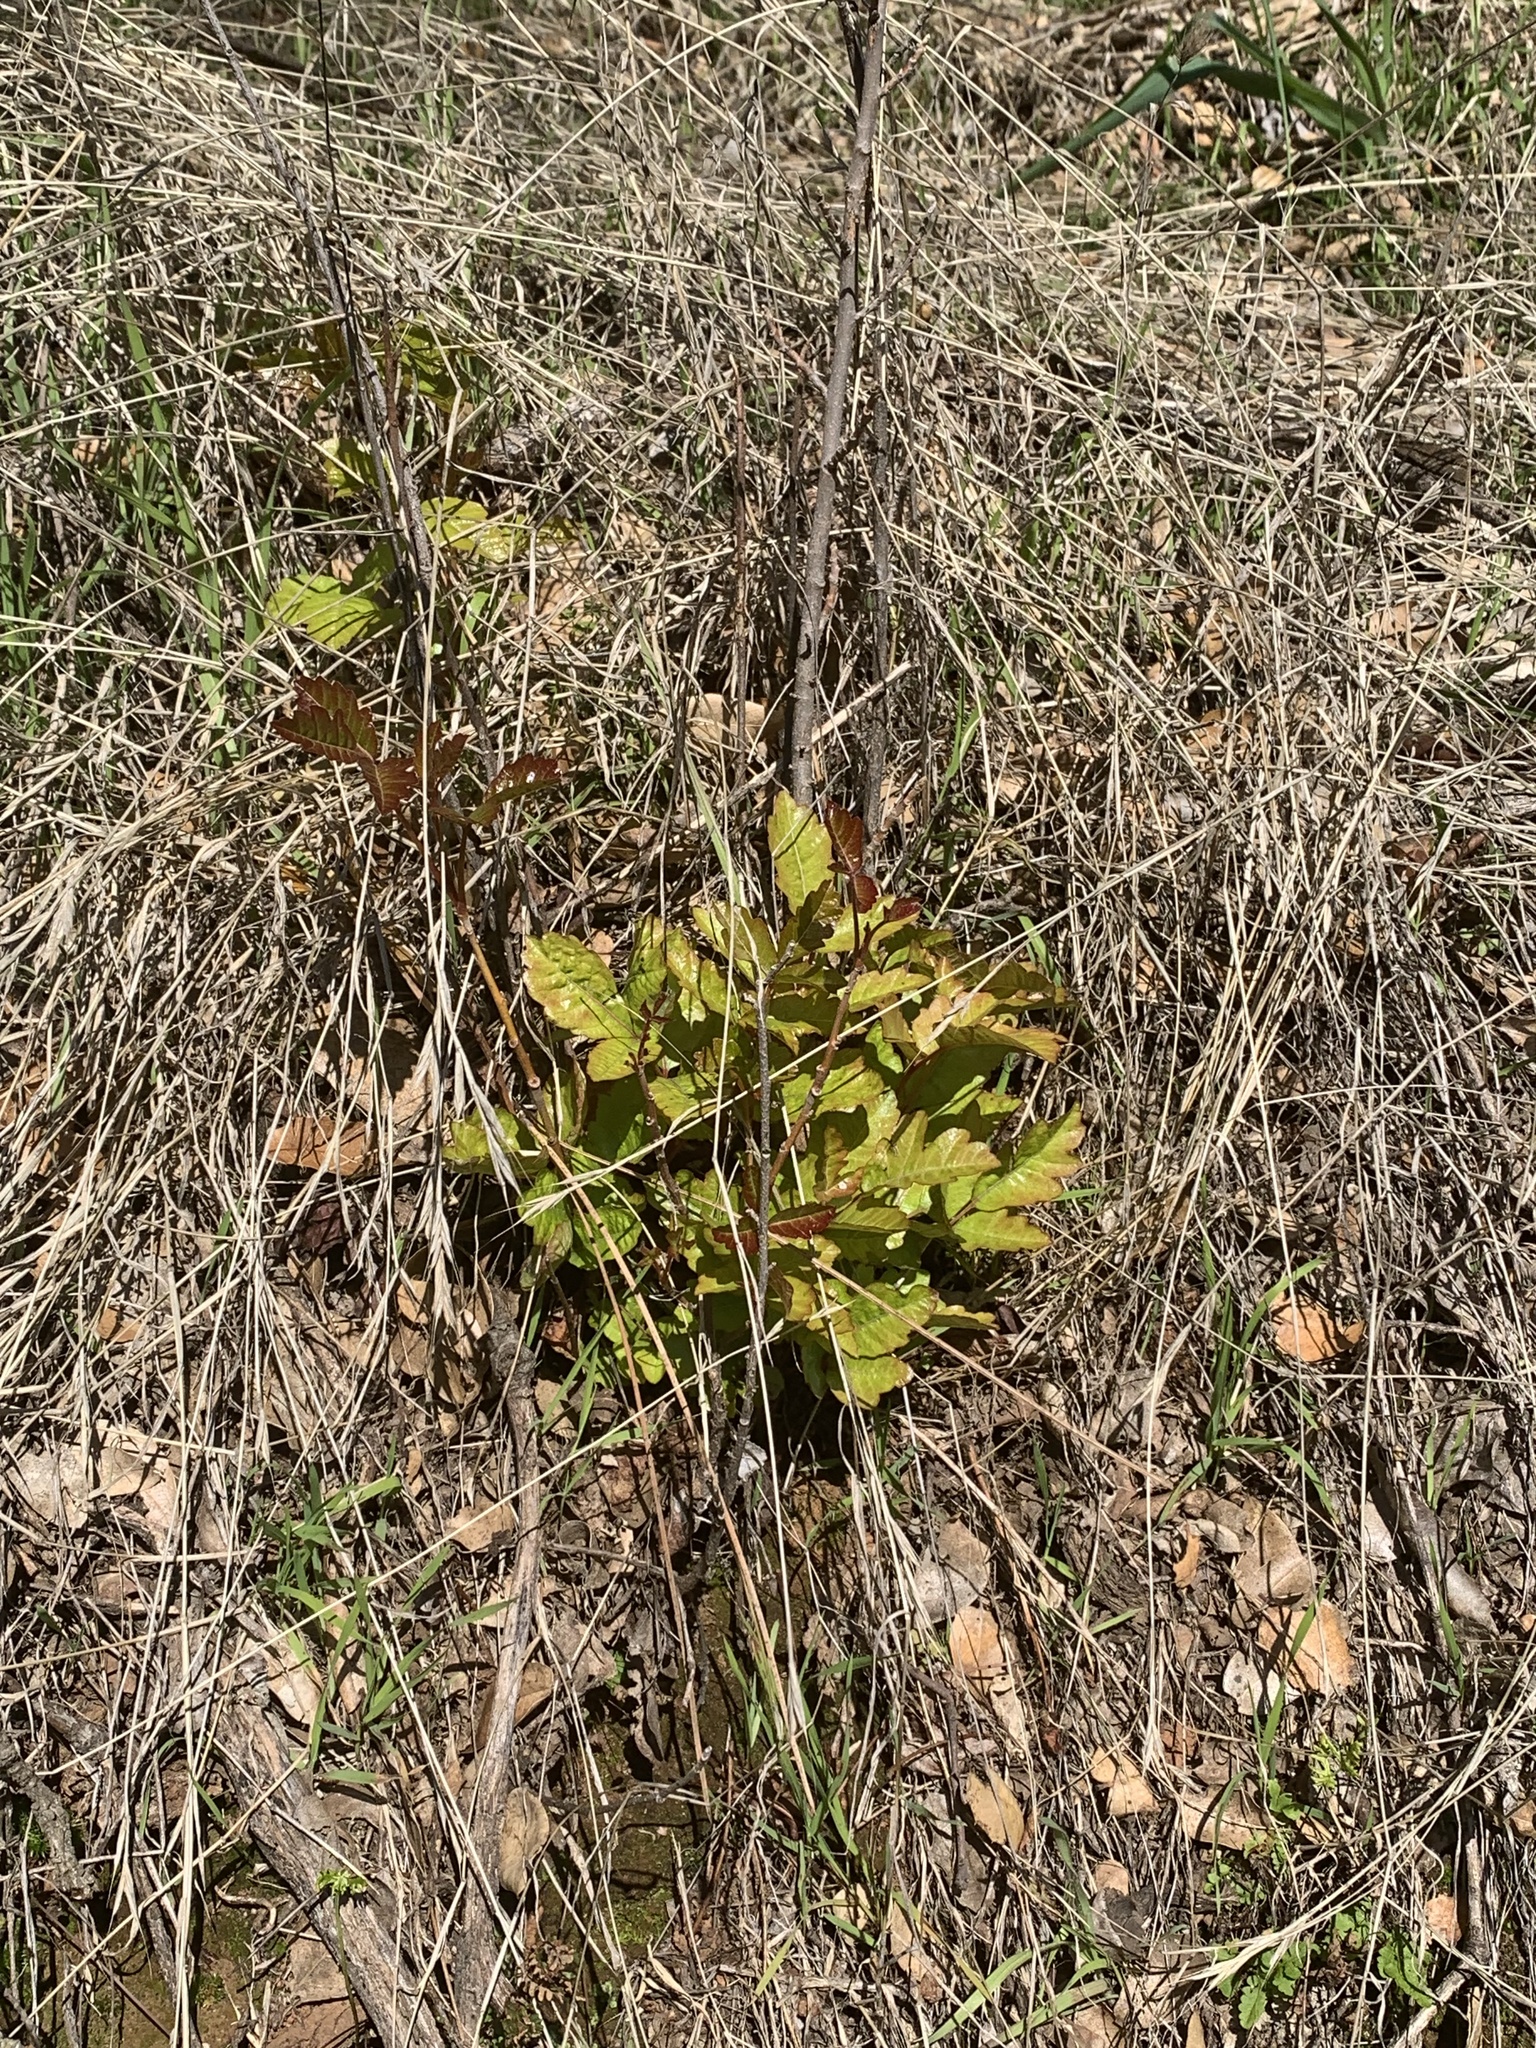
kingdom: Plantae
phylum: Tracheophyta
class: Magnoliopsida
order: Sapindales
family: Anacardiaceae
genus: Toxicodendron
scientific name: Toxicodendron diversilobum
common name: Pacific poison-oak
